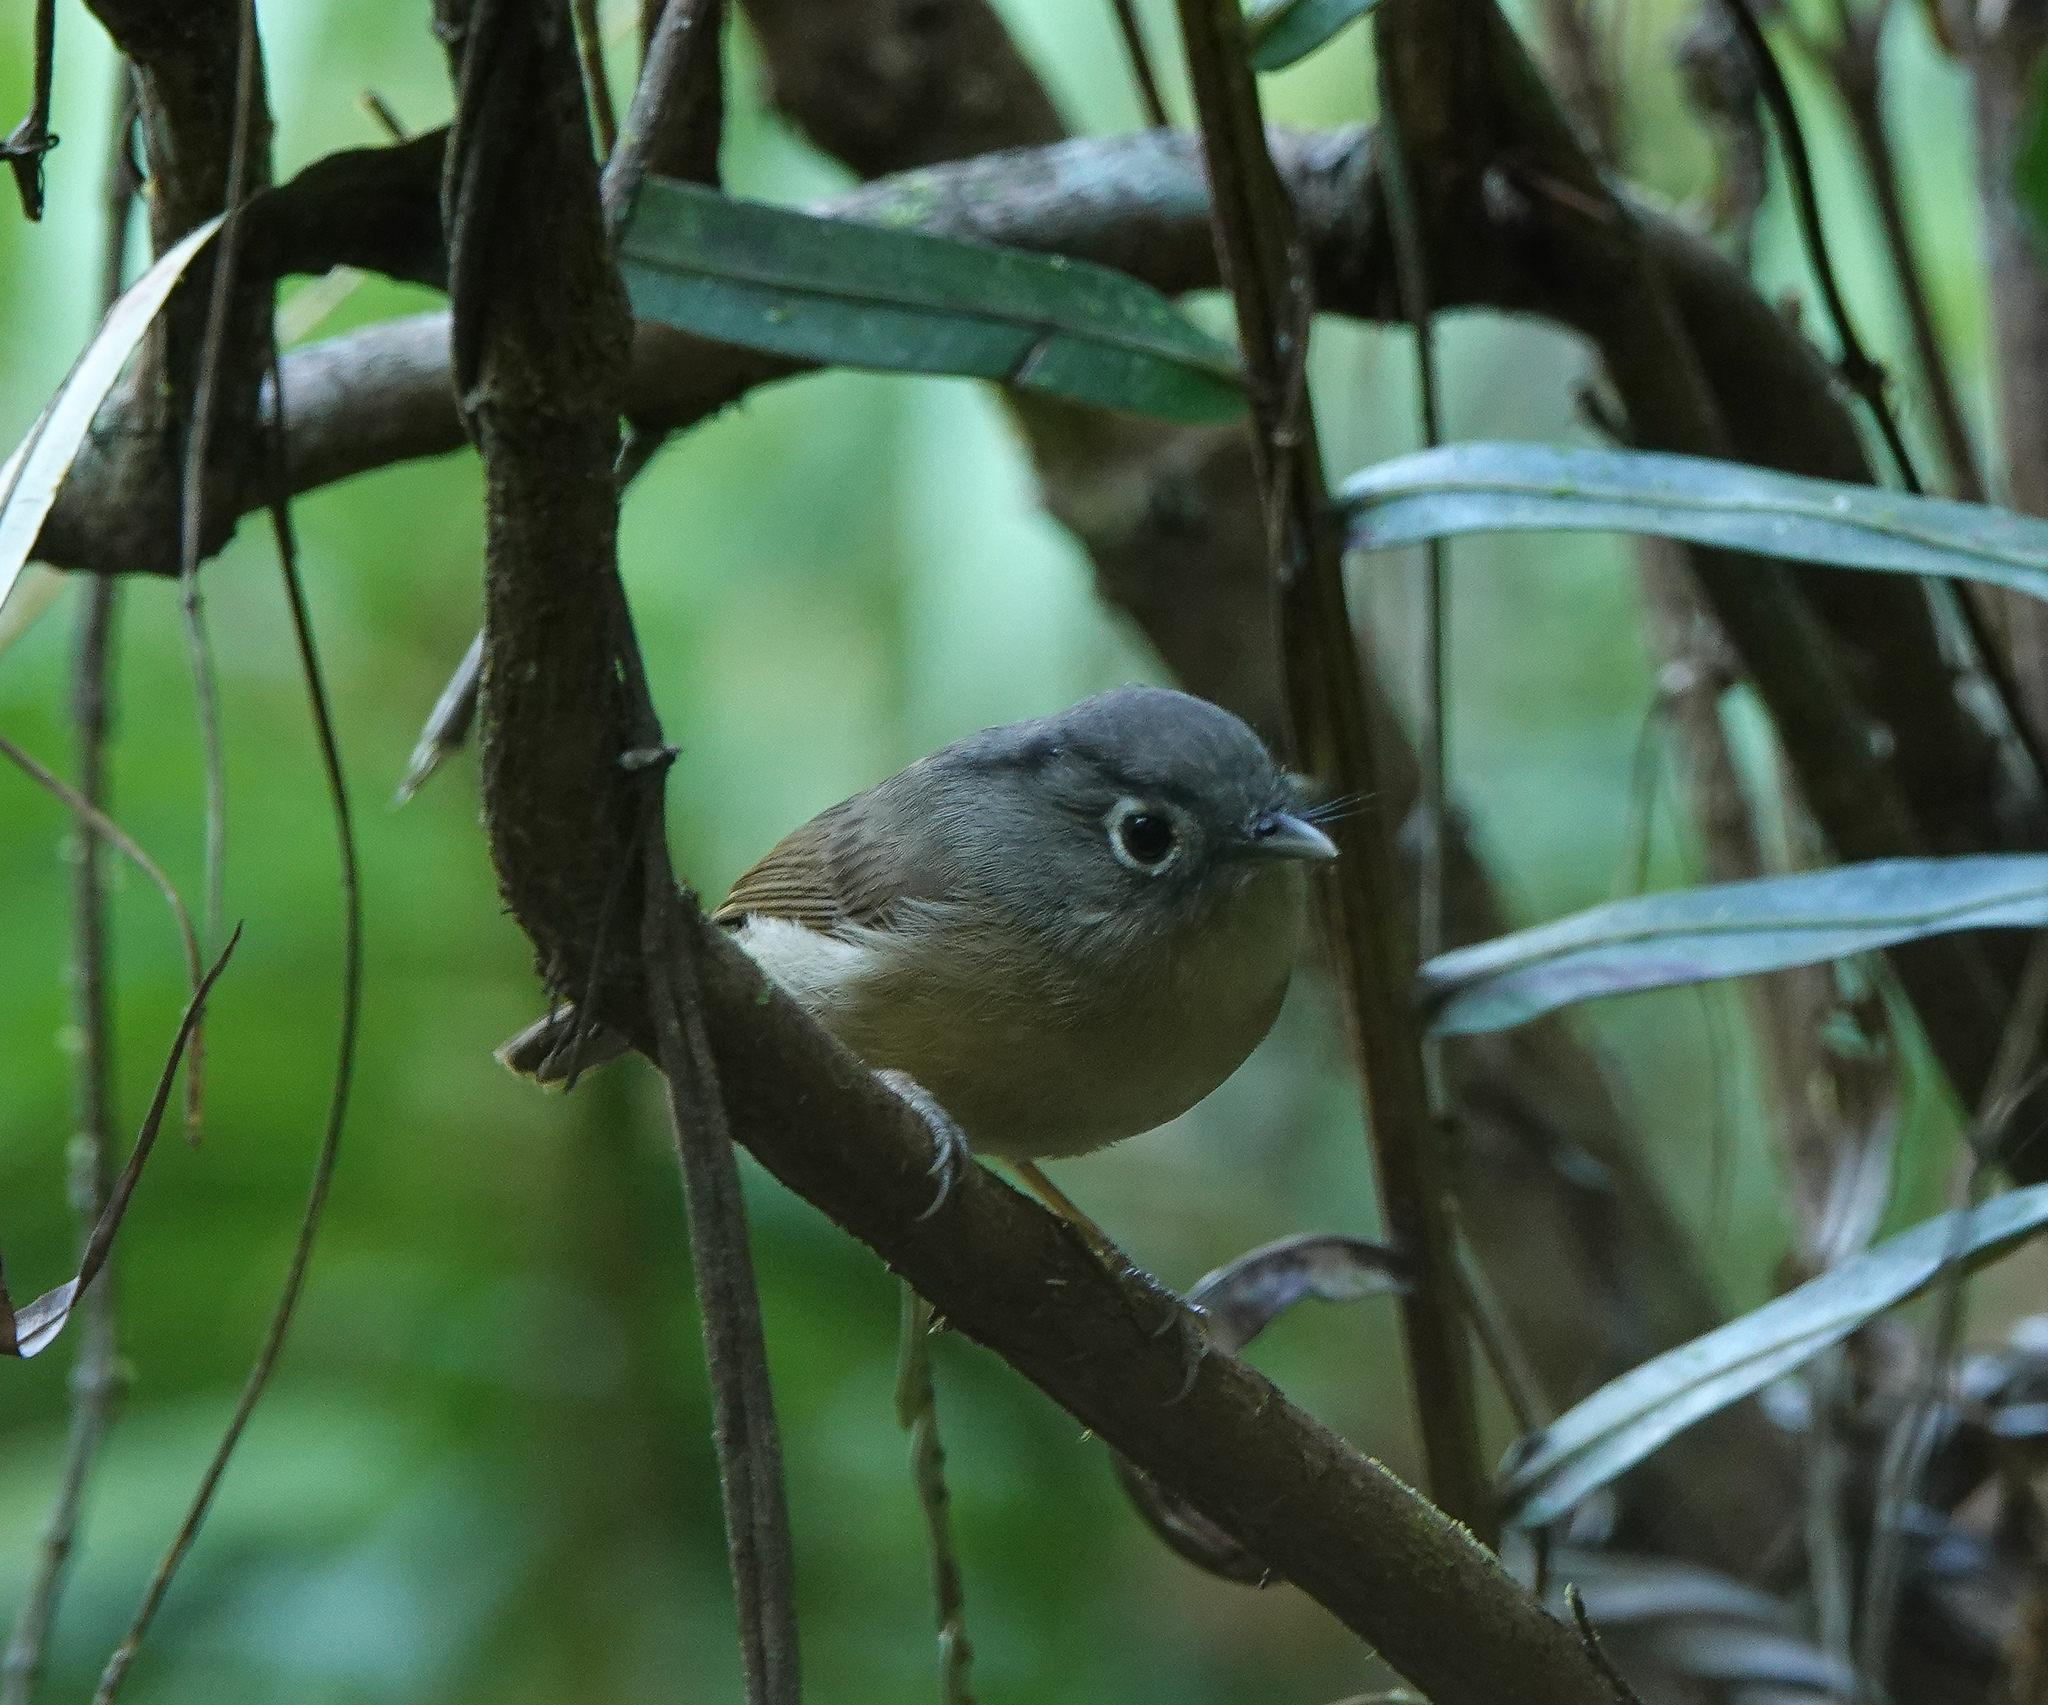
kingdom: Animalia
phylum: Chordata
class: Aves
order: Passeriformes
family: Pellorneidae
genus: Alcippe
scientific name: Alcippe nipalensis
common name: Nepal fulvetta
